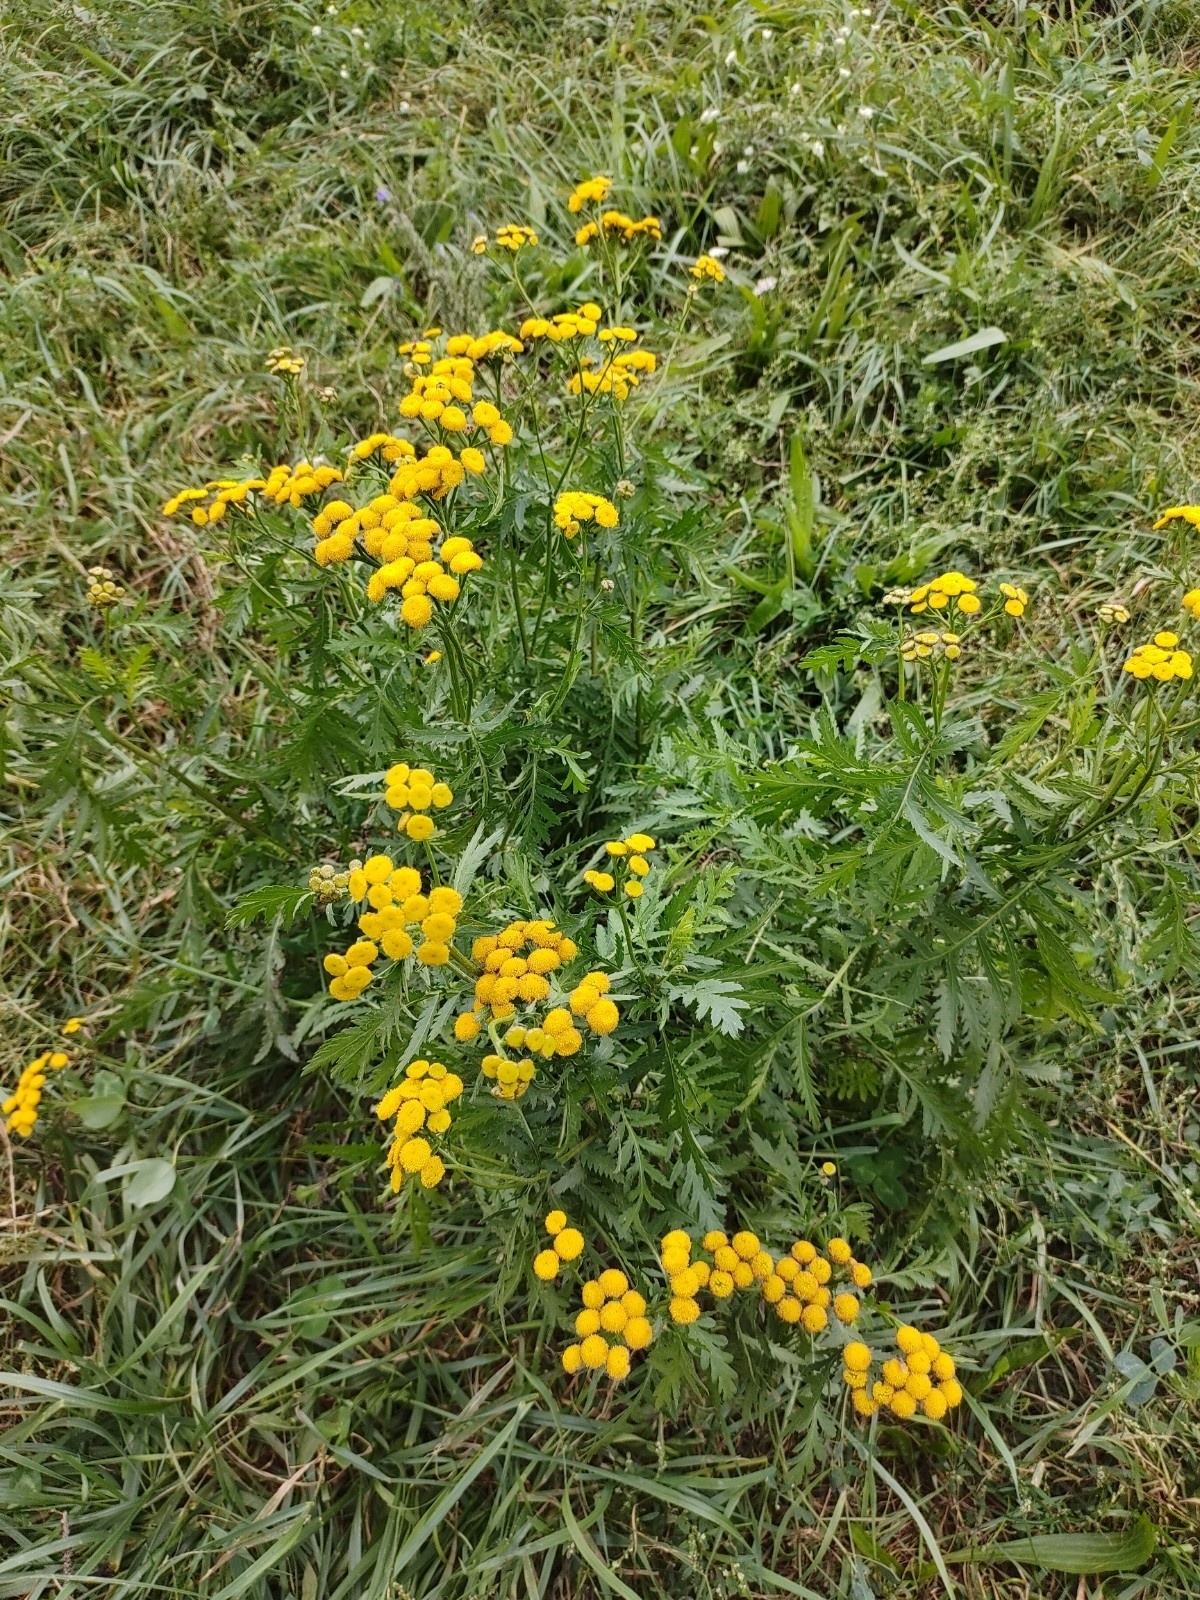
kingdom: Plantae
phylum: Tracheophyta
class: Magnoliopsida
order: Asterales
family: Asteraceae
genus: Tanacetum
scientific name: Tanacetum vulgare
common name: Common tansy
